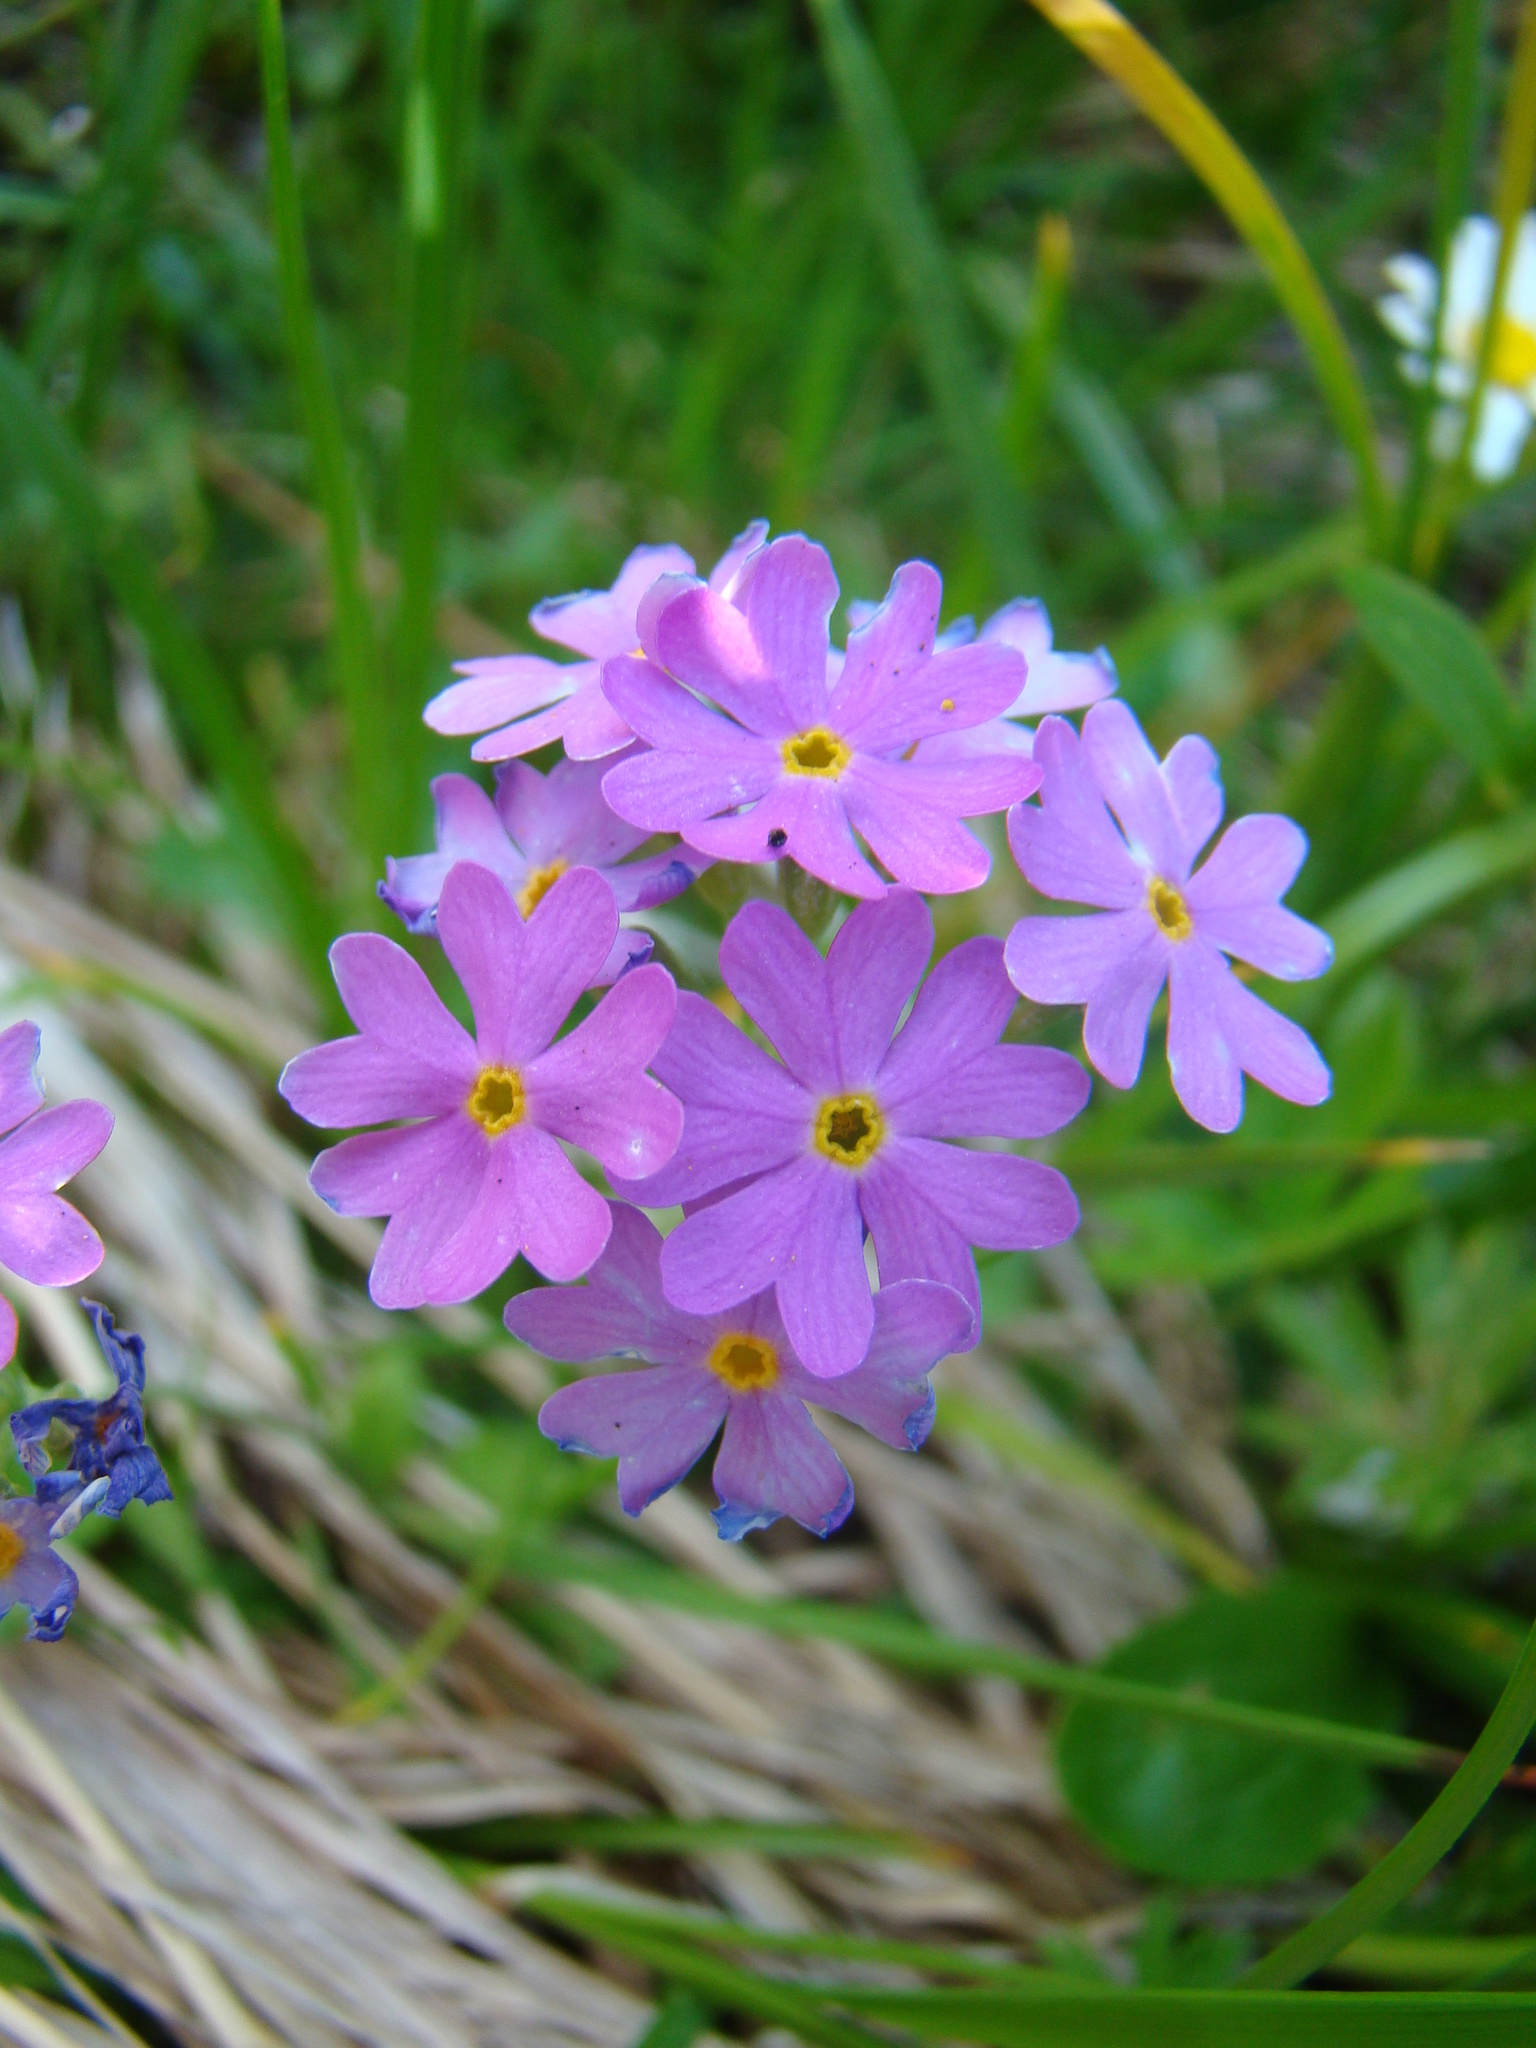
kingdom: Plantae
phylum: Tracheophyta
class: Magnoliopsida
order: Ericales
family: Primulaceae
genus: Primula
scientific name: Primula farinosa
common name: Bird's-eye primrose
